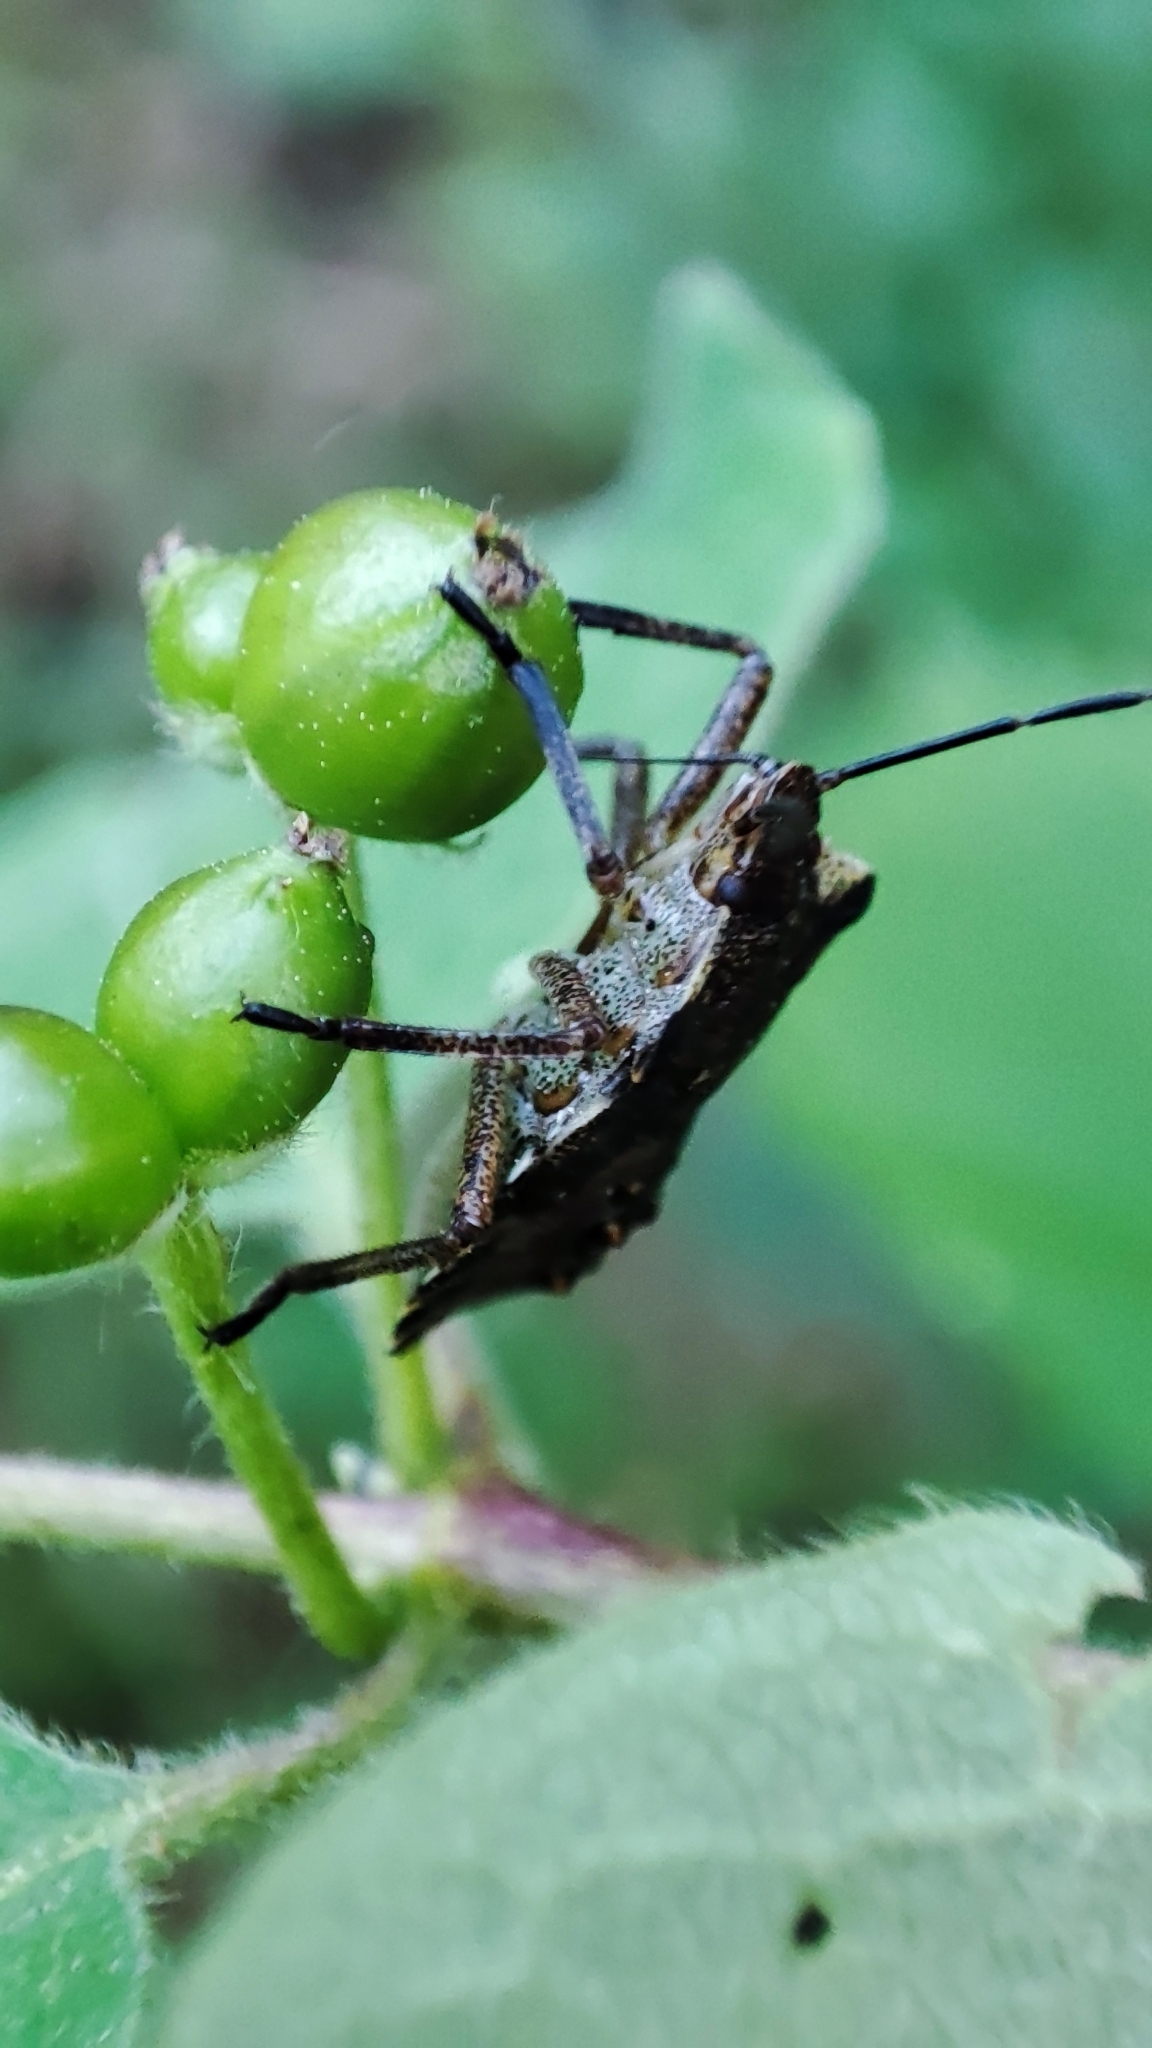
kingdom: Animalia
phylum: Arthropoda
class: Insecta
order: Hemiptera
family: Pentatomidae
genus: Pentatoma
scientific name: Pentatoma rufipes
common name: Forest bug
